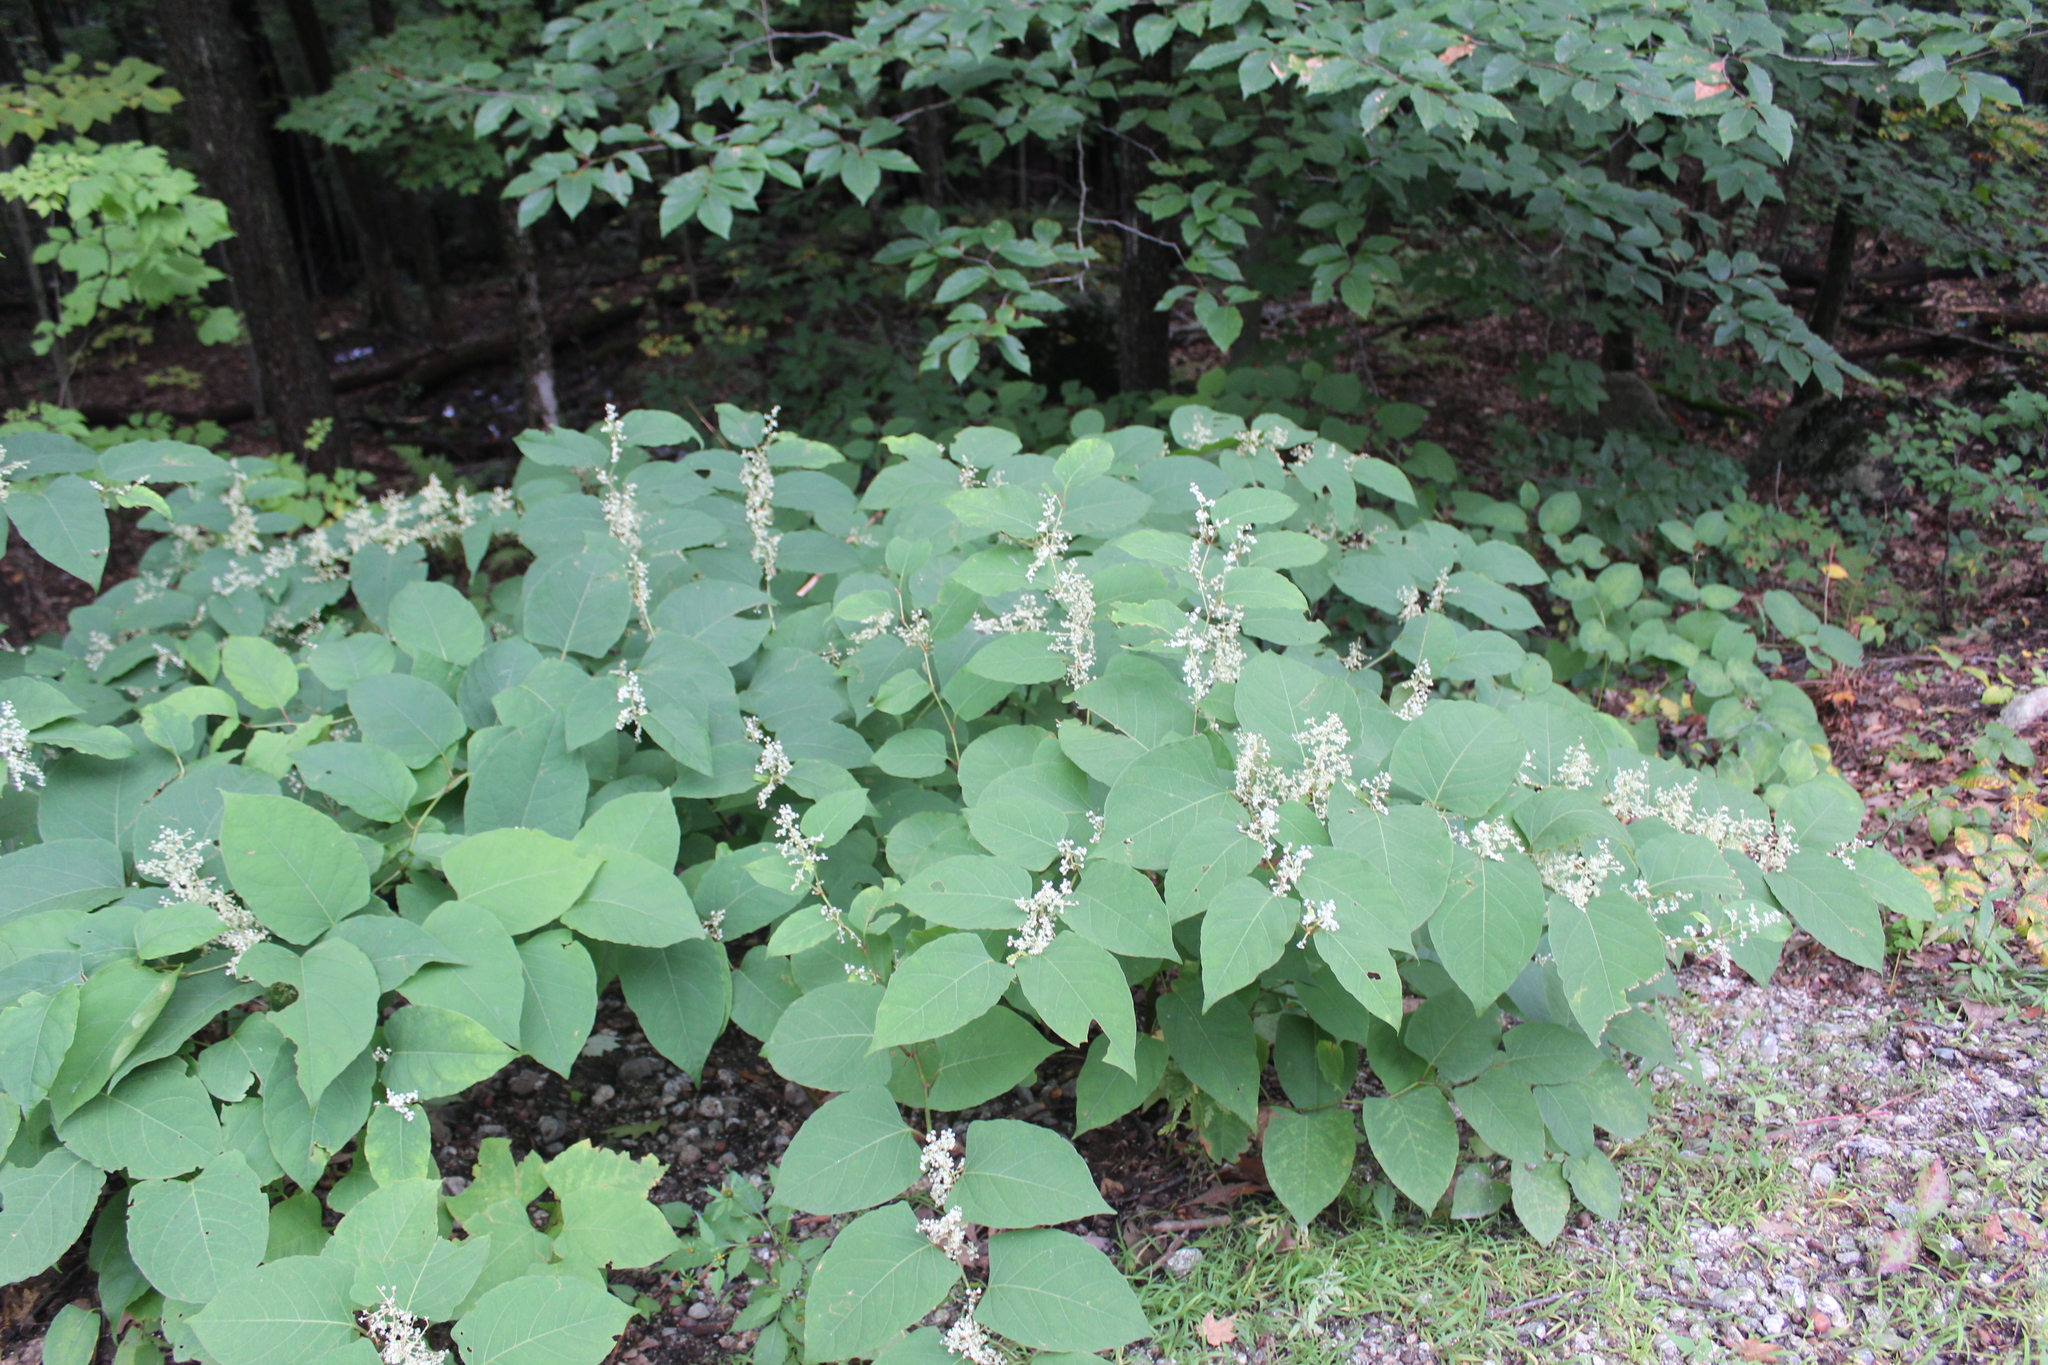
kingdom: Plantae
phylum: Tracheophyta
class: Magnoliopsida
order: Caryophyllales
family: Polygonaceae
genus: Reynoutria
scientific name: Reynoutria japonica
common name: Japanese knotweed
